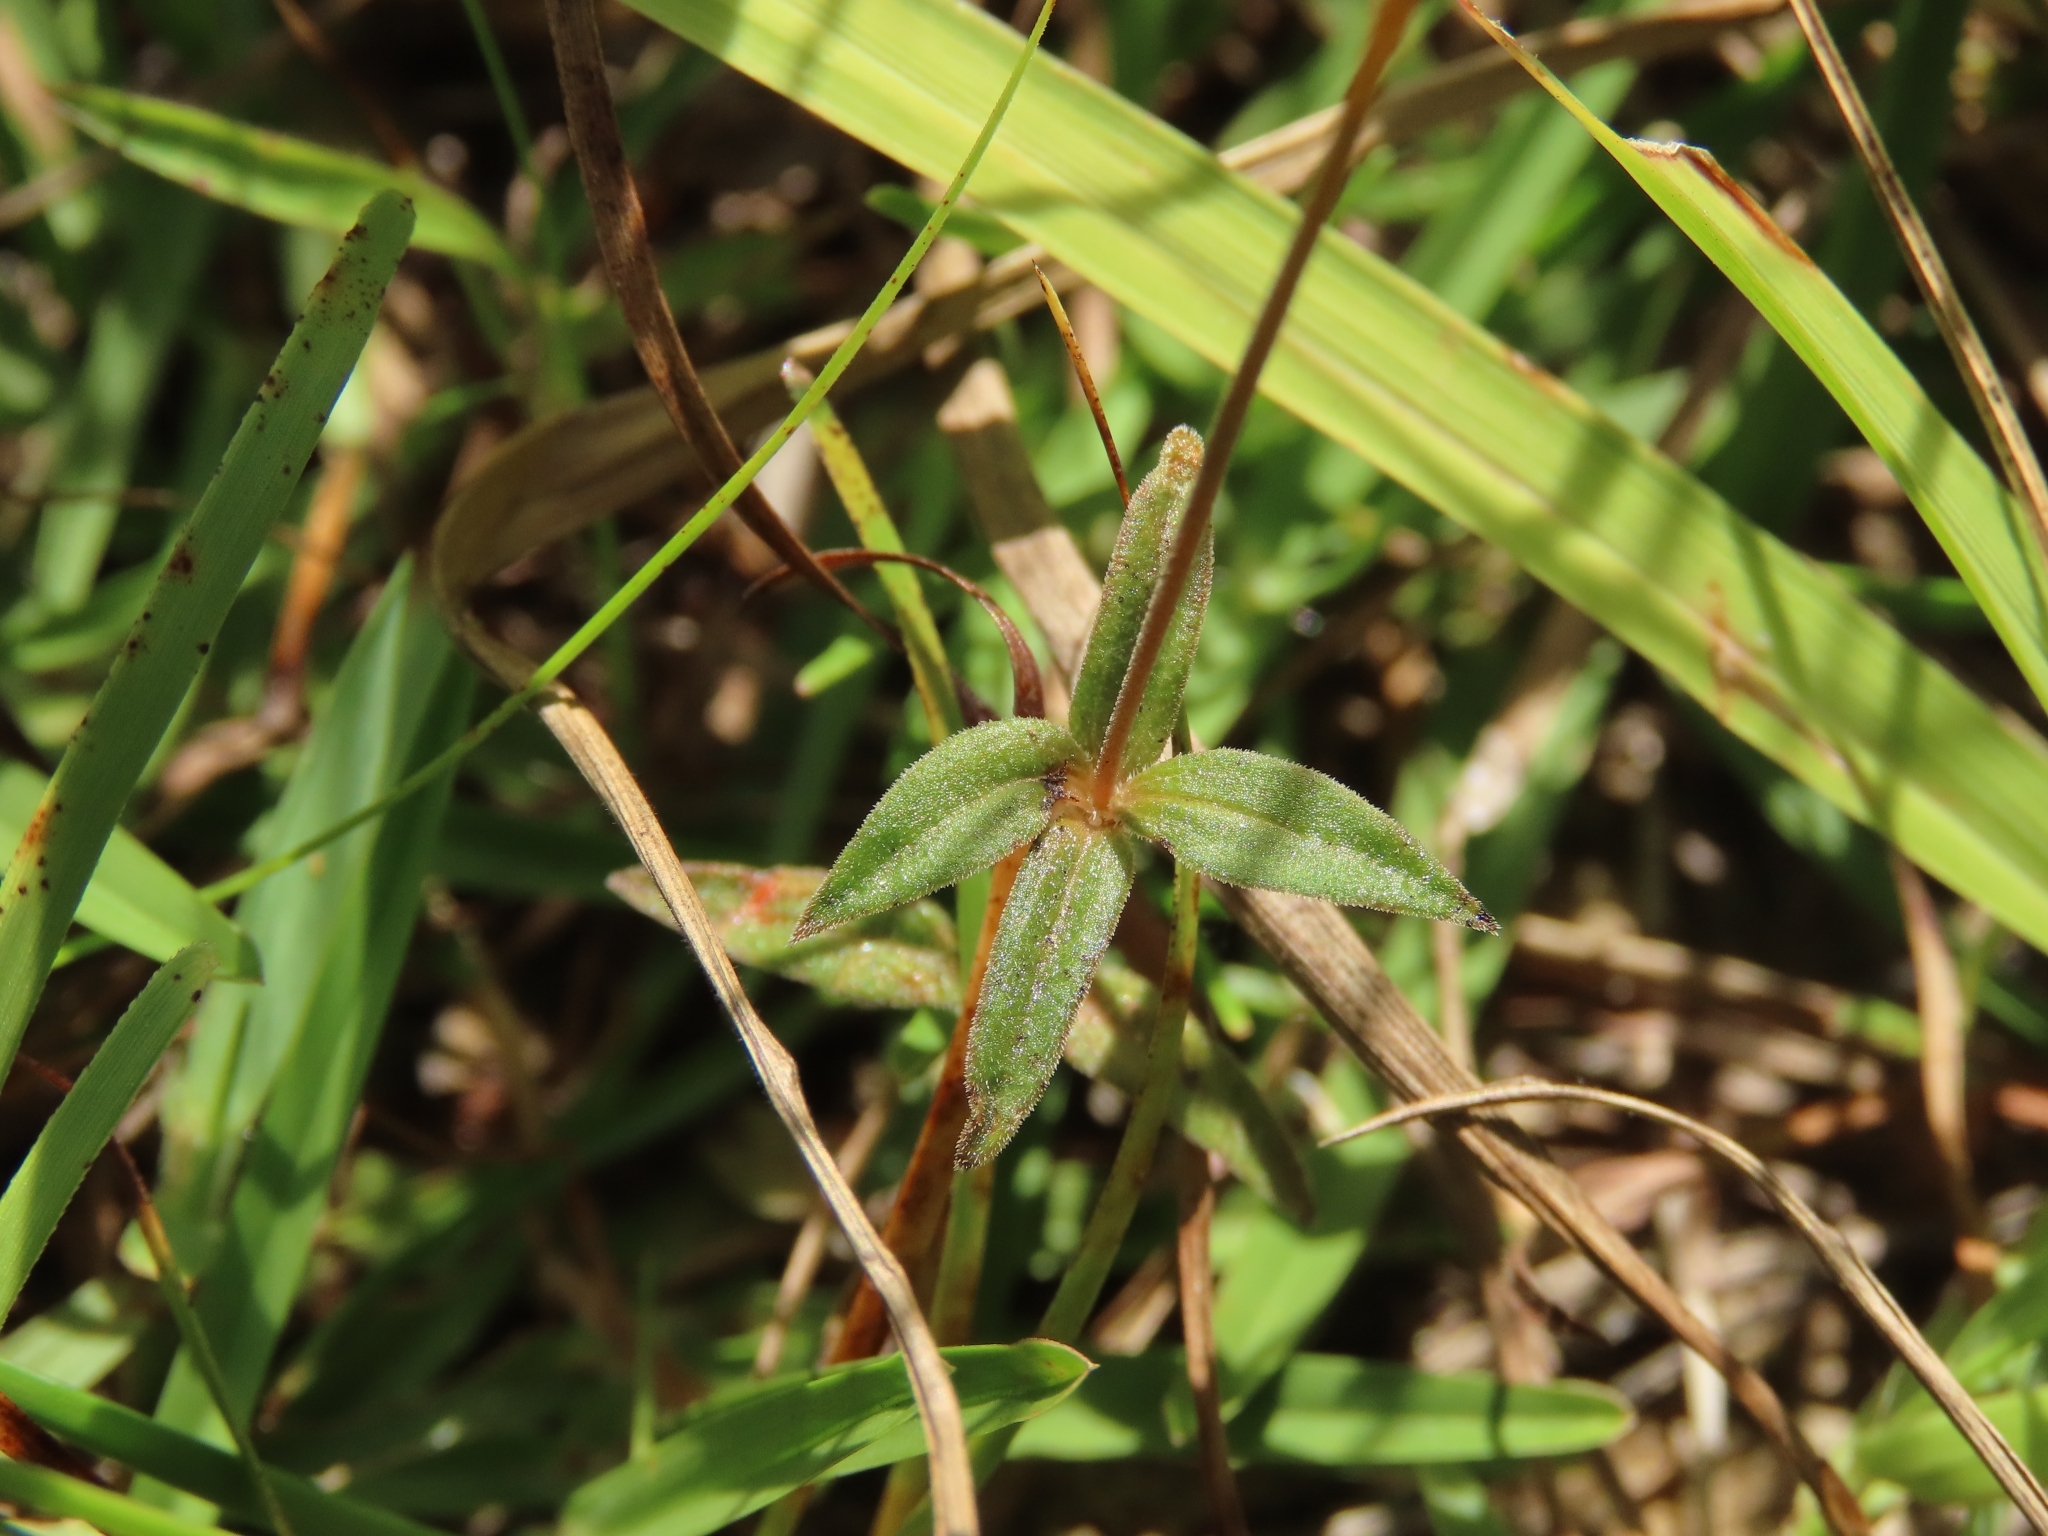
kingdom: Plantae
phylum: Tracheophyta
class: Magnoliopsida
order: Gentianales
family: Loganiaceae
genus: Mitrasacme
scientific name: Mitrasacme pygmaea
